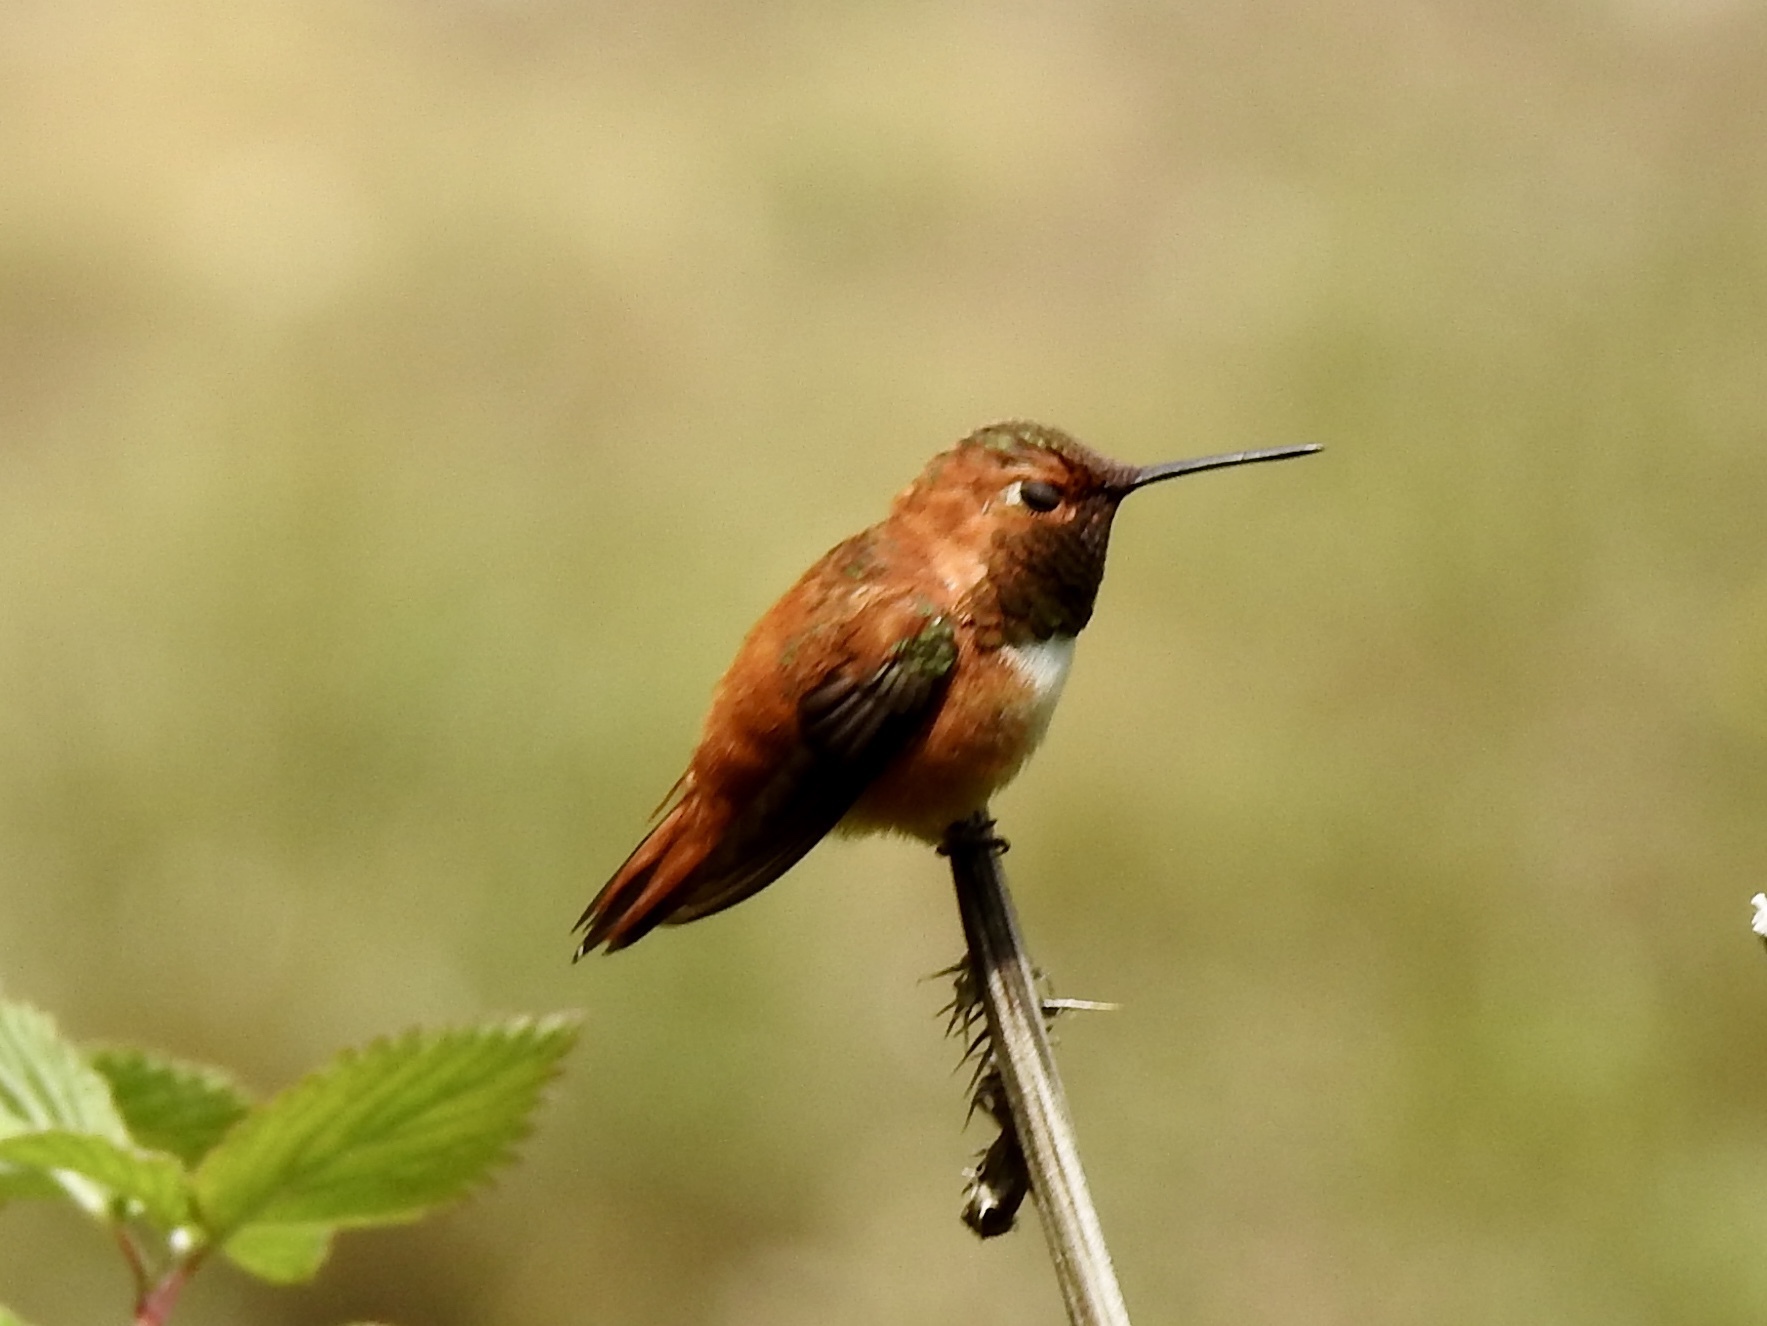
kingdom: Animalia
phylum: Chordata
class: Aves
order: Apodiformes
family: Trochilidae
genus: Selasphorus
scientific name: Selasphorus rufus
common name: Rufous hummingbird
